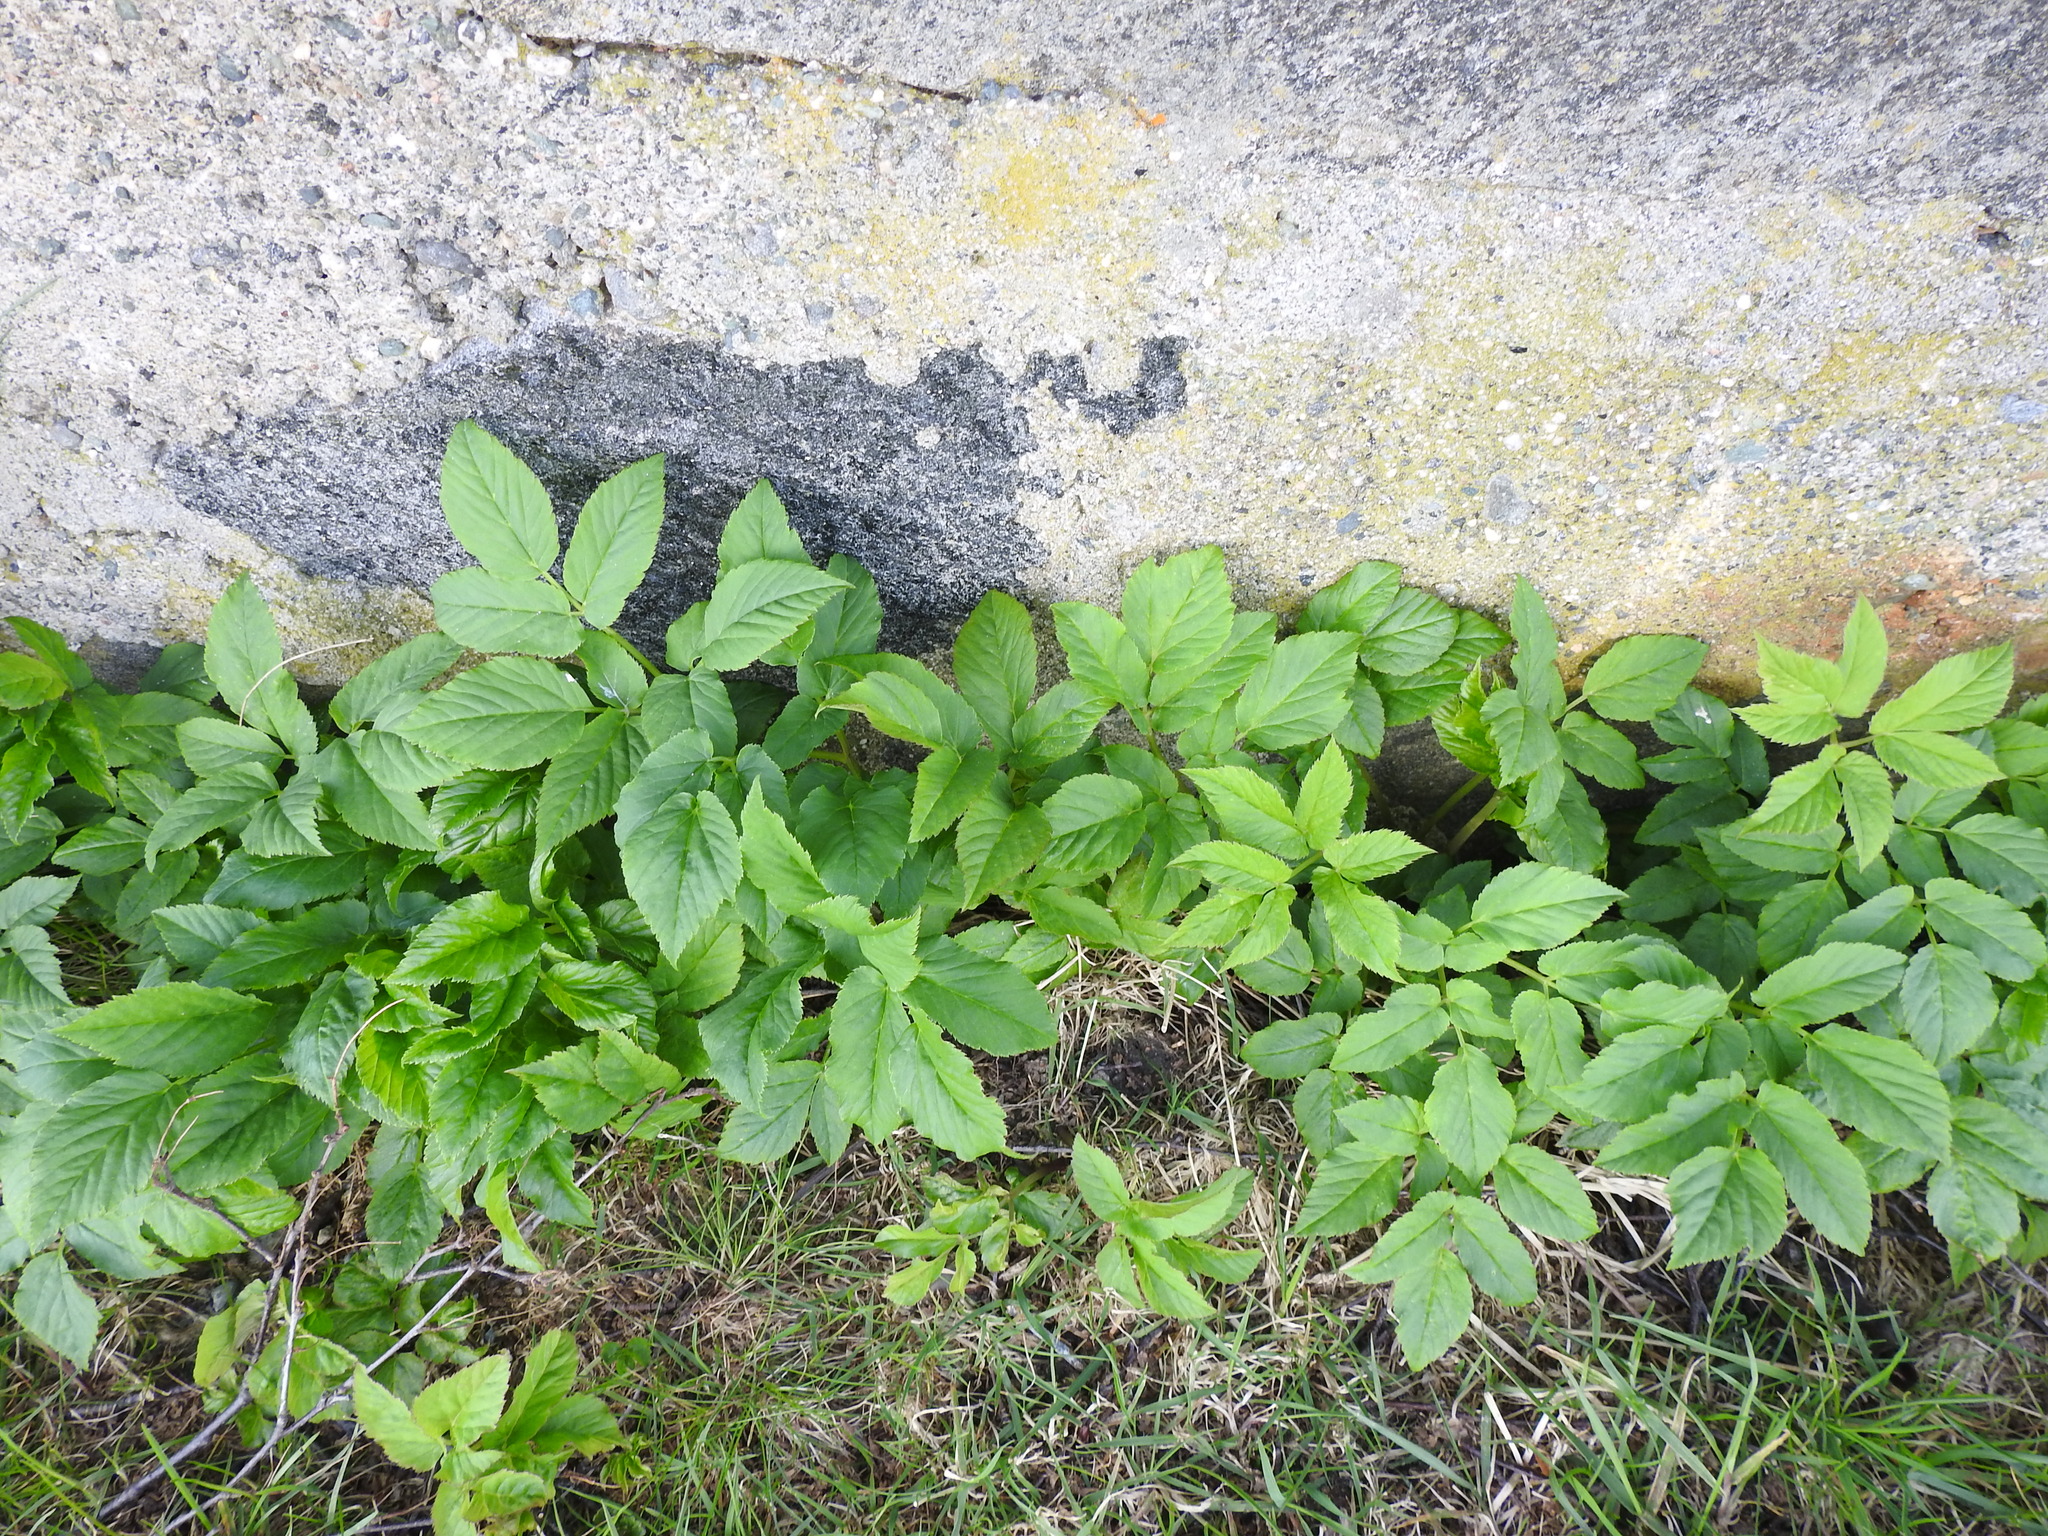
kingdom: Plantae
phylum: Tracheophyta
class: Magnoliopsida
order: Apiales
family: Apiaceae
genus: Aegopodium
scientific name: Aegopodium podagraria
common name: Ground-elder
